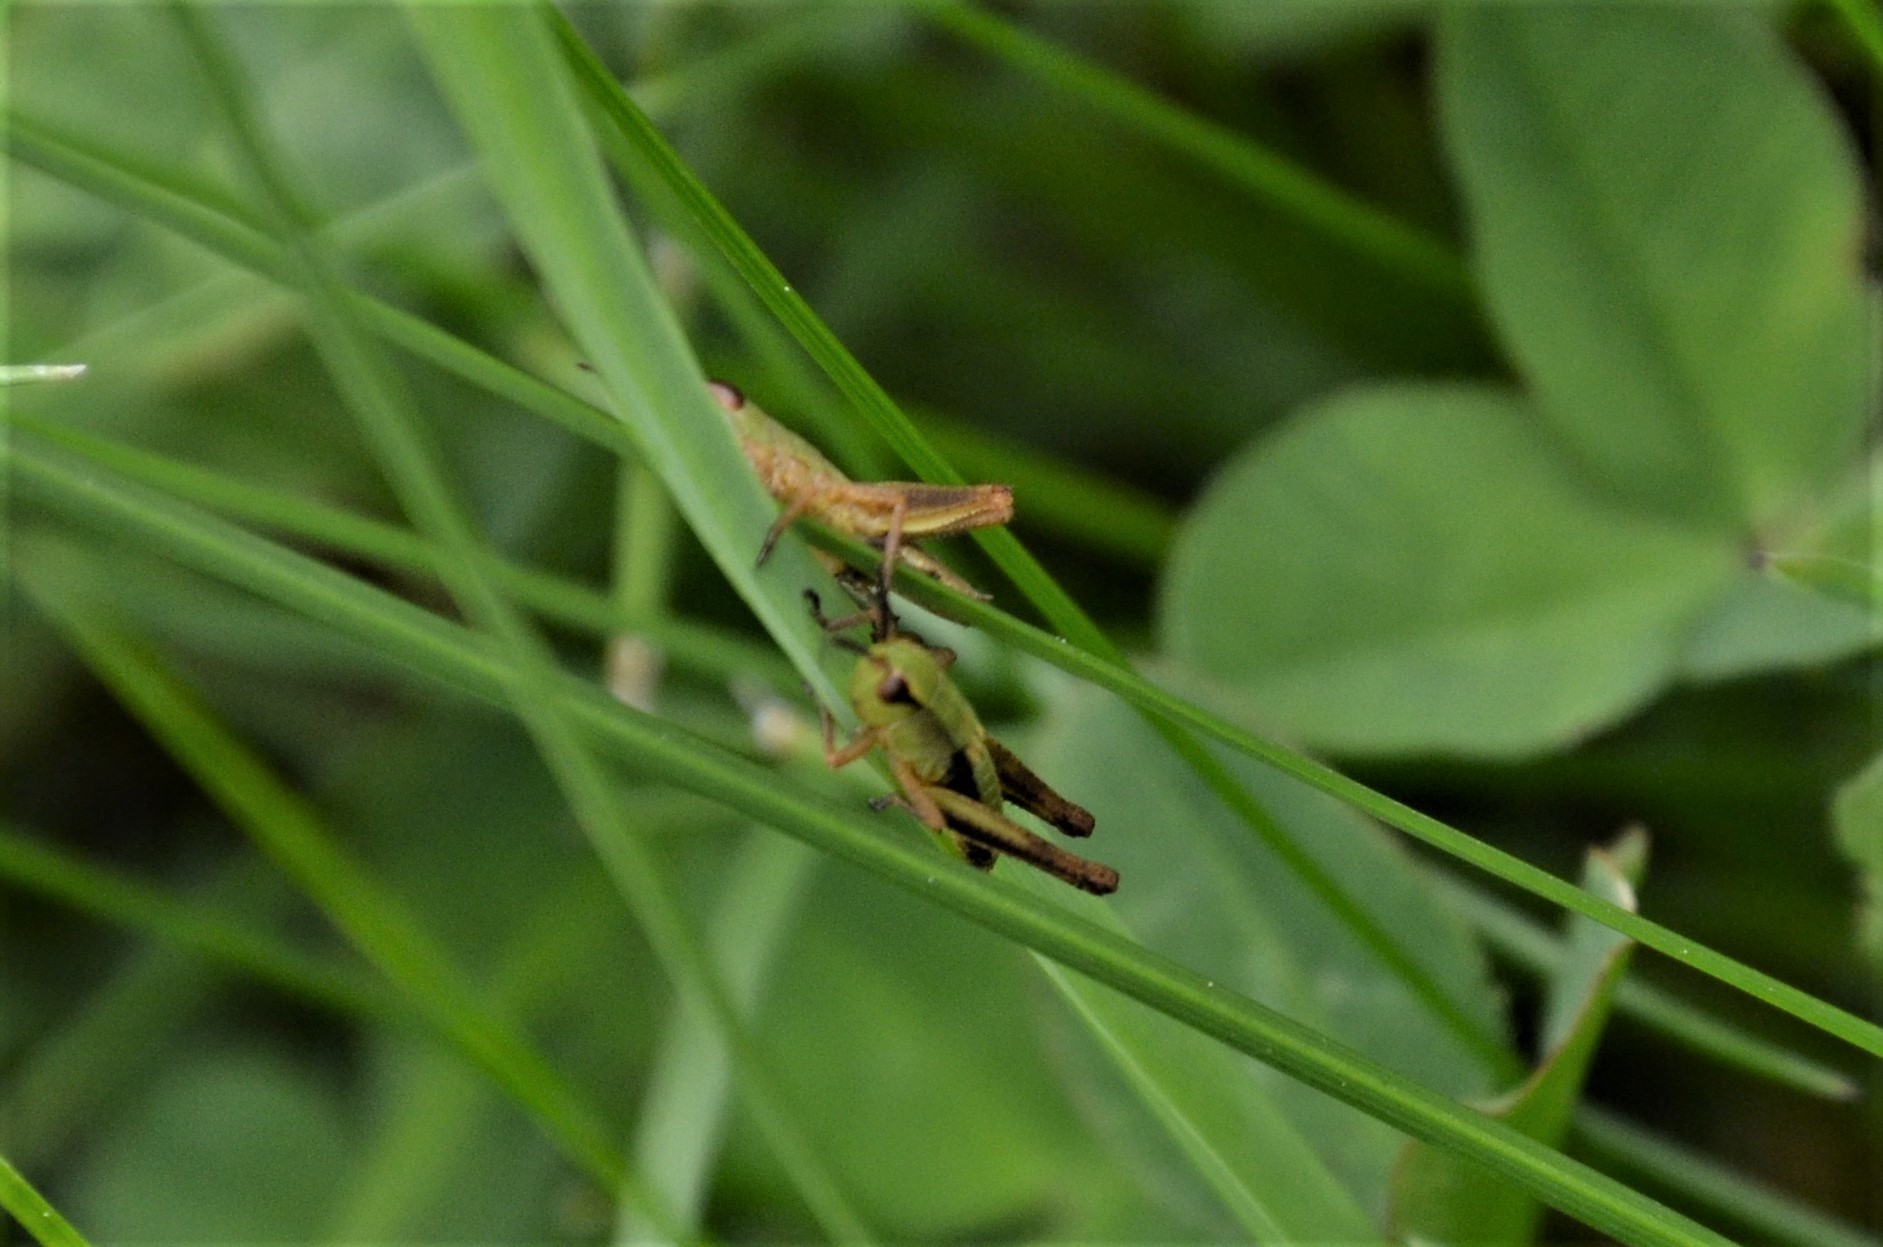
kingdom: Animalia
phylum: Arthropoda
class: Insecta
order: Orthoptera
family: Acrididae
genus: Pseudochorthippus
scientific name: Pseudochorthippus parallelus
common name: Meadow grasshopper
